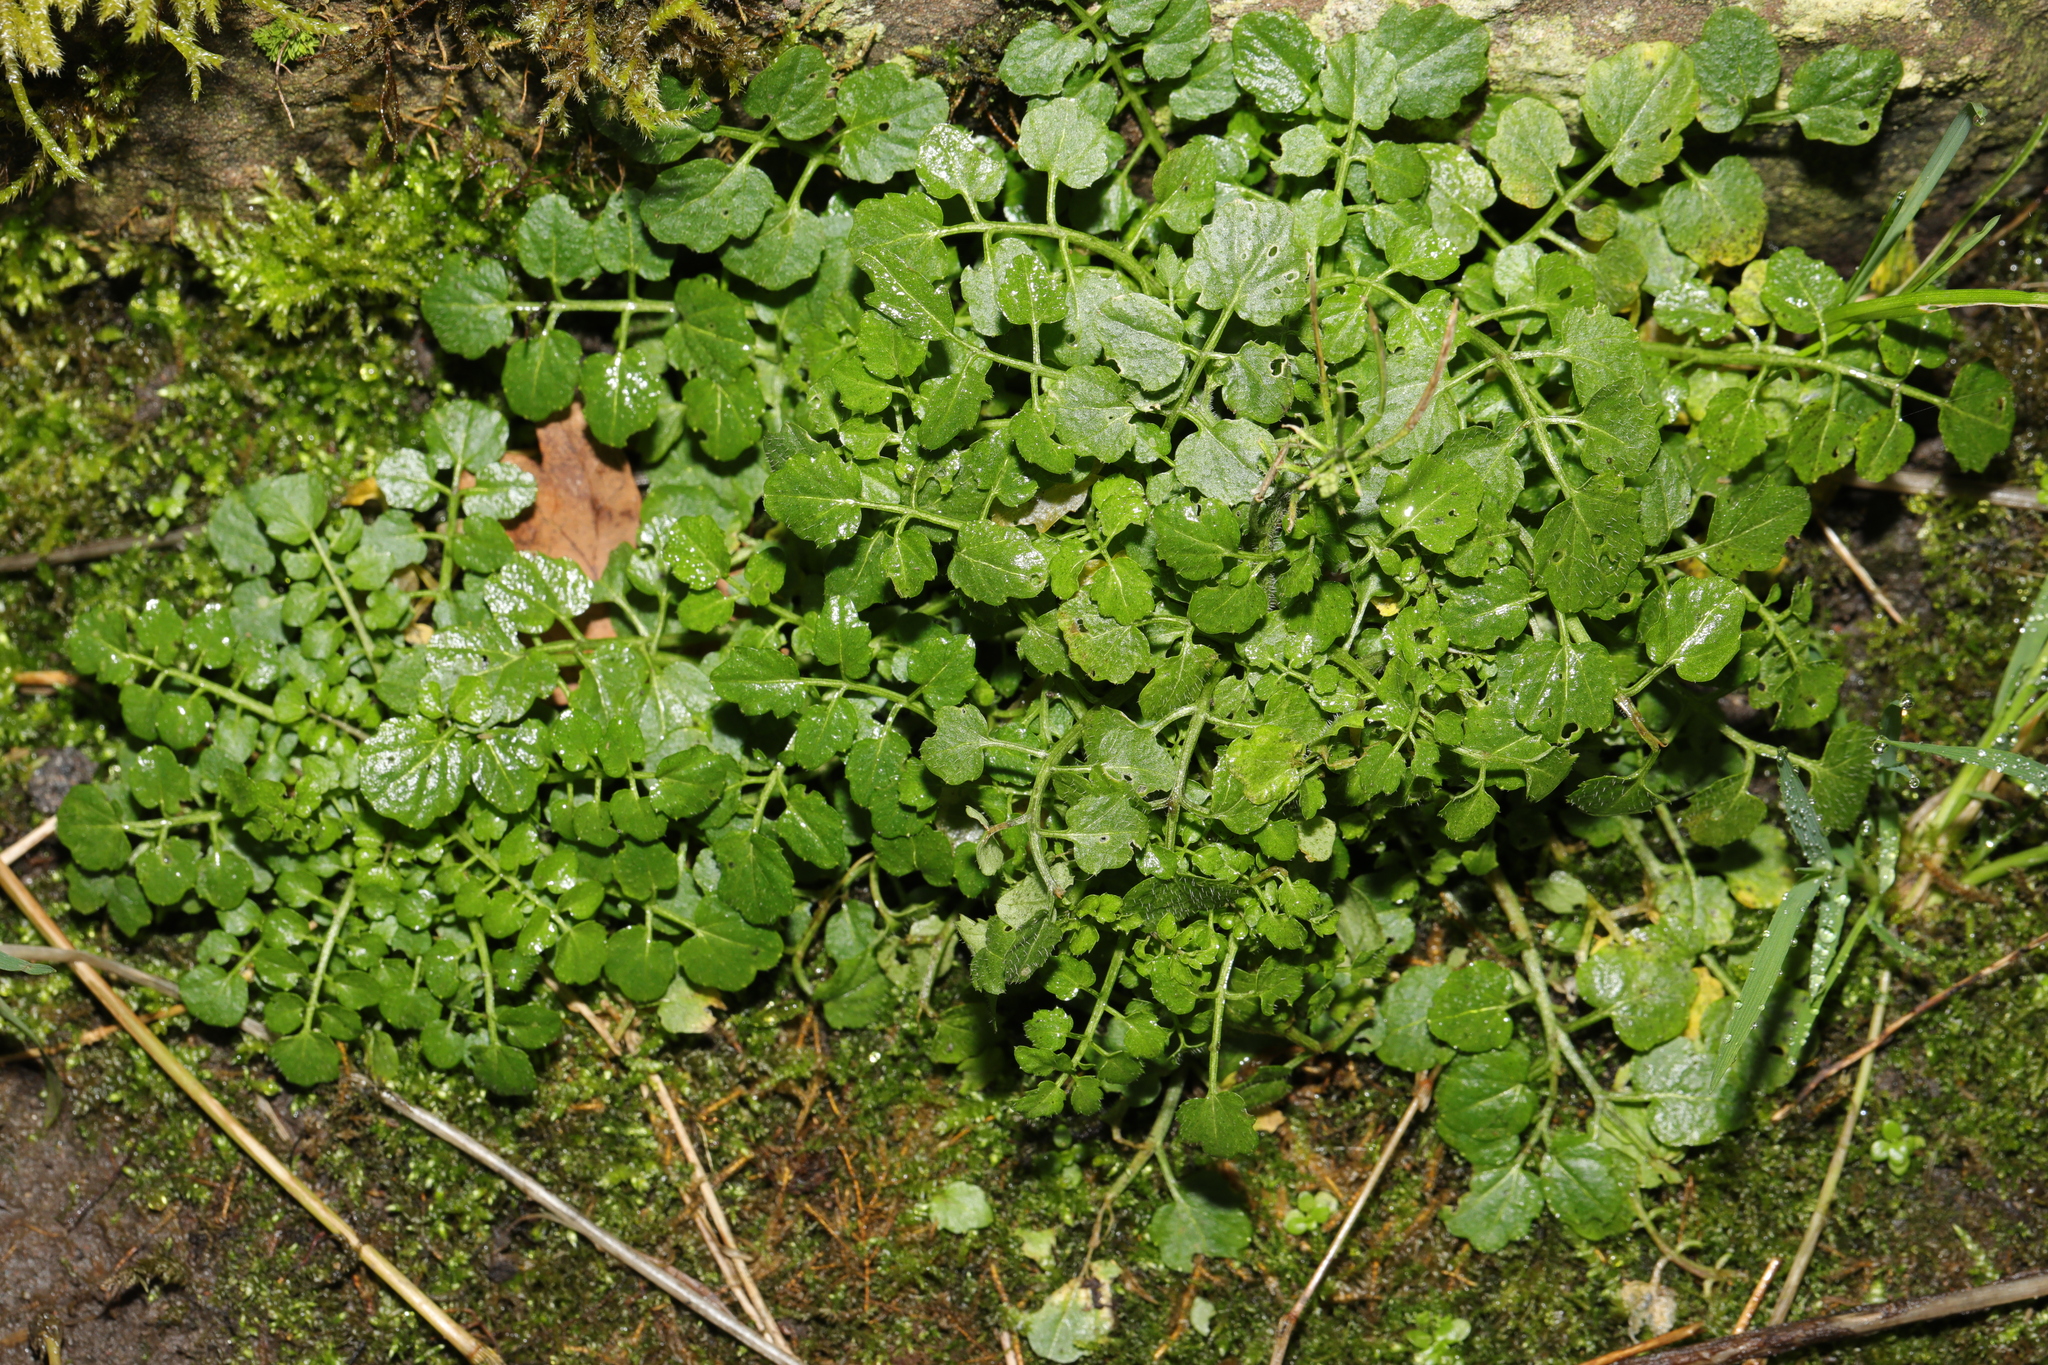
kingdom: Plantae
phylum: Tracheophyta
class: Magnoliopsida
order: Brassicales
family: Brassicaceae
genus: Cardamine
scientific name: Cardamine flexuosa
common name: Woodland bittercress
